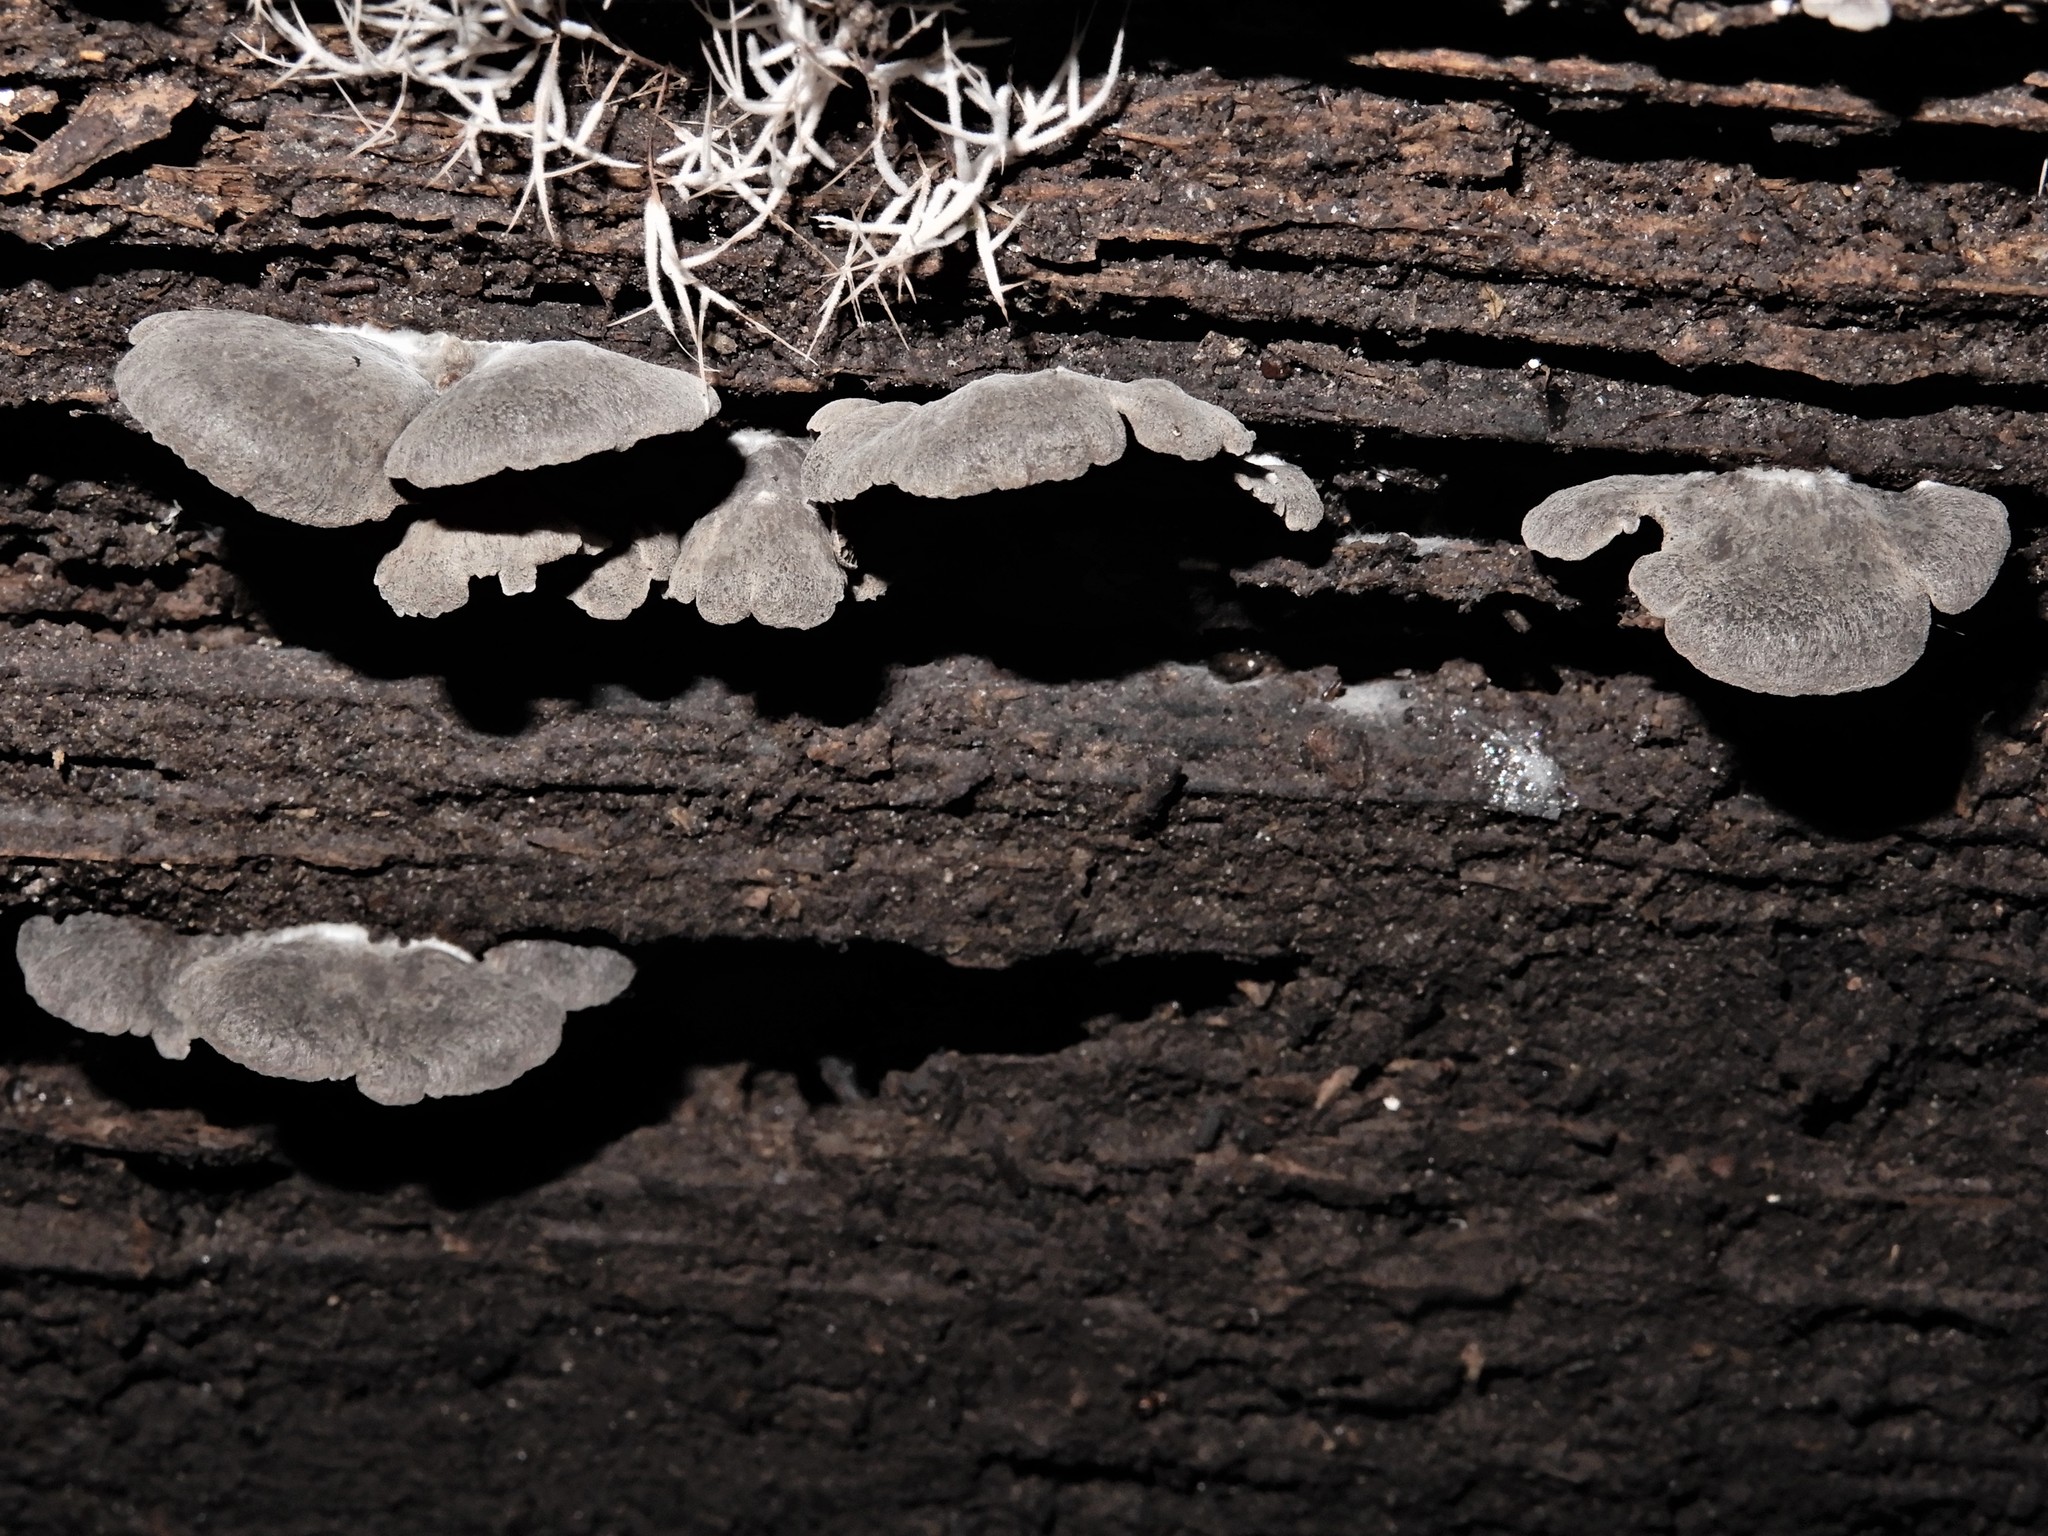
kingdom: Fungi
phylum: Basidiomycota
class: Agaricomycetes
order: Agaricales
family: Entolomataceae
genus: Clitopilus
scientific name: Clitopilus conchatus
